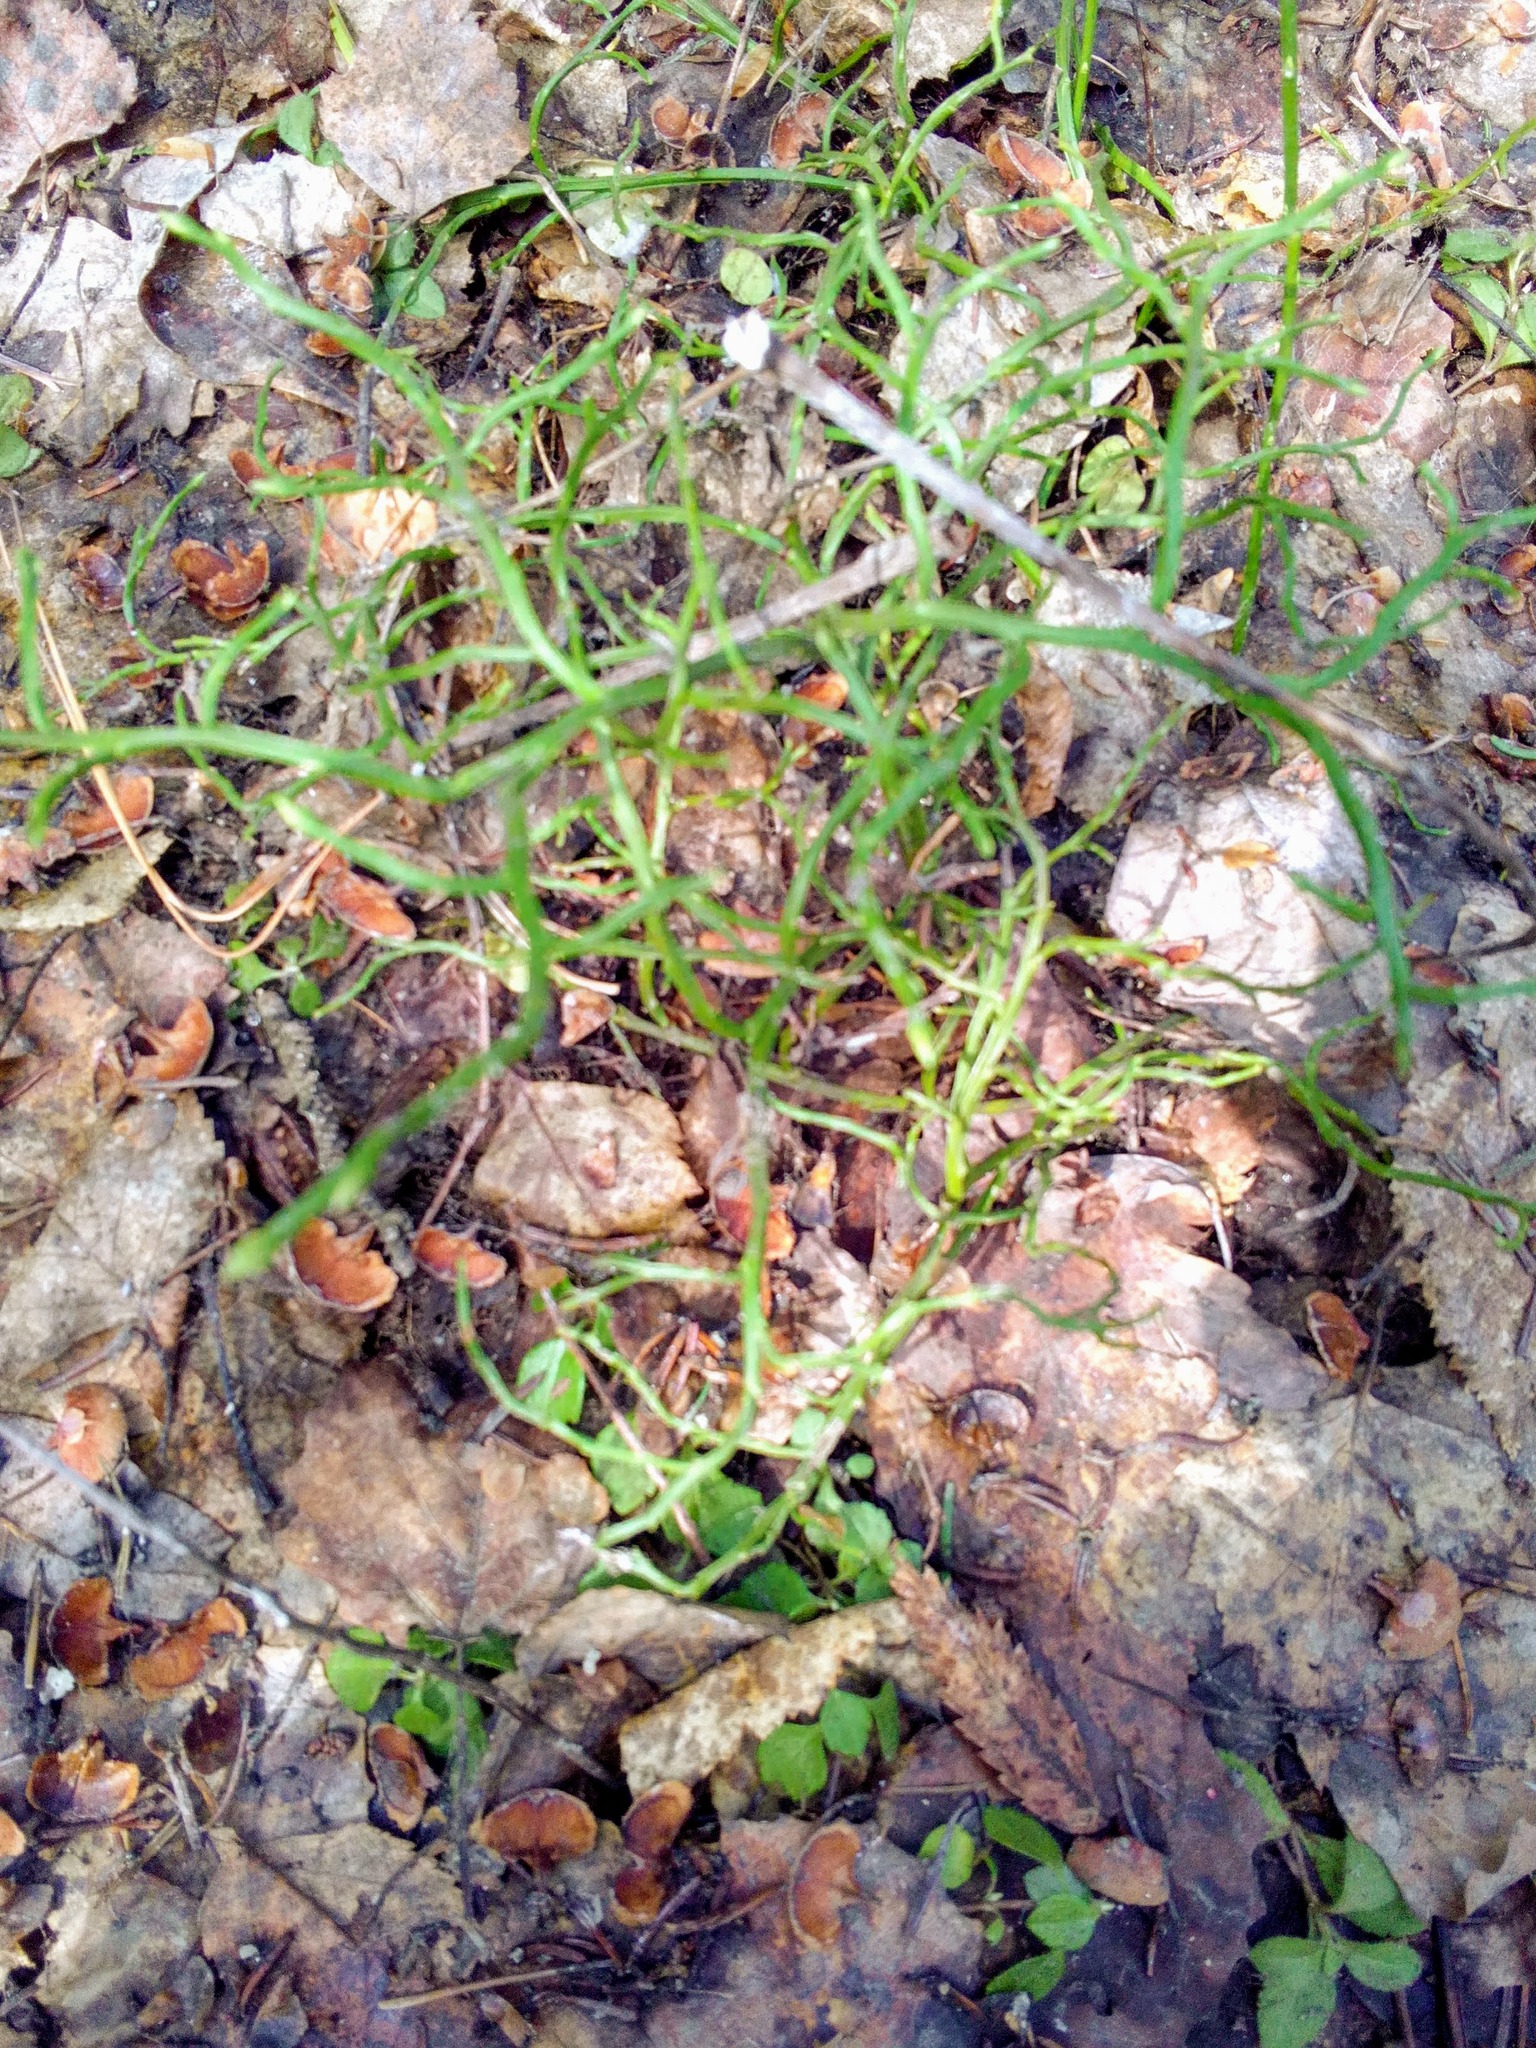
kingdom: Plantae
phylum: Tracheophyta
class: Magnoliopsida
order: Ericales
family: Ericaceae
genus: Vaccinium
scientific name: Vaccinium myrtillus
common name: Bilberry
